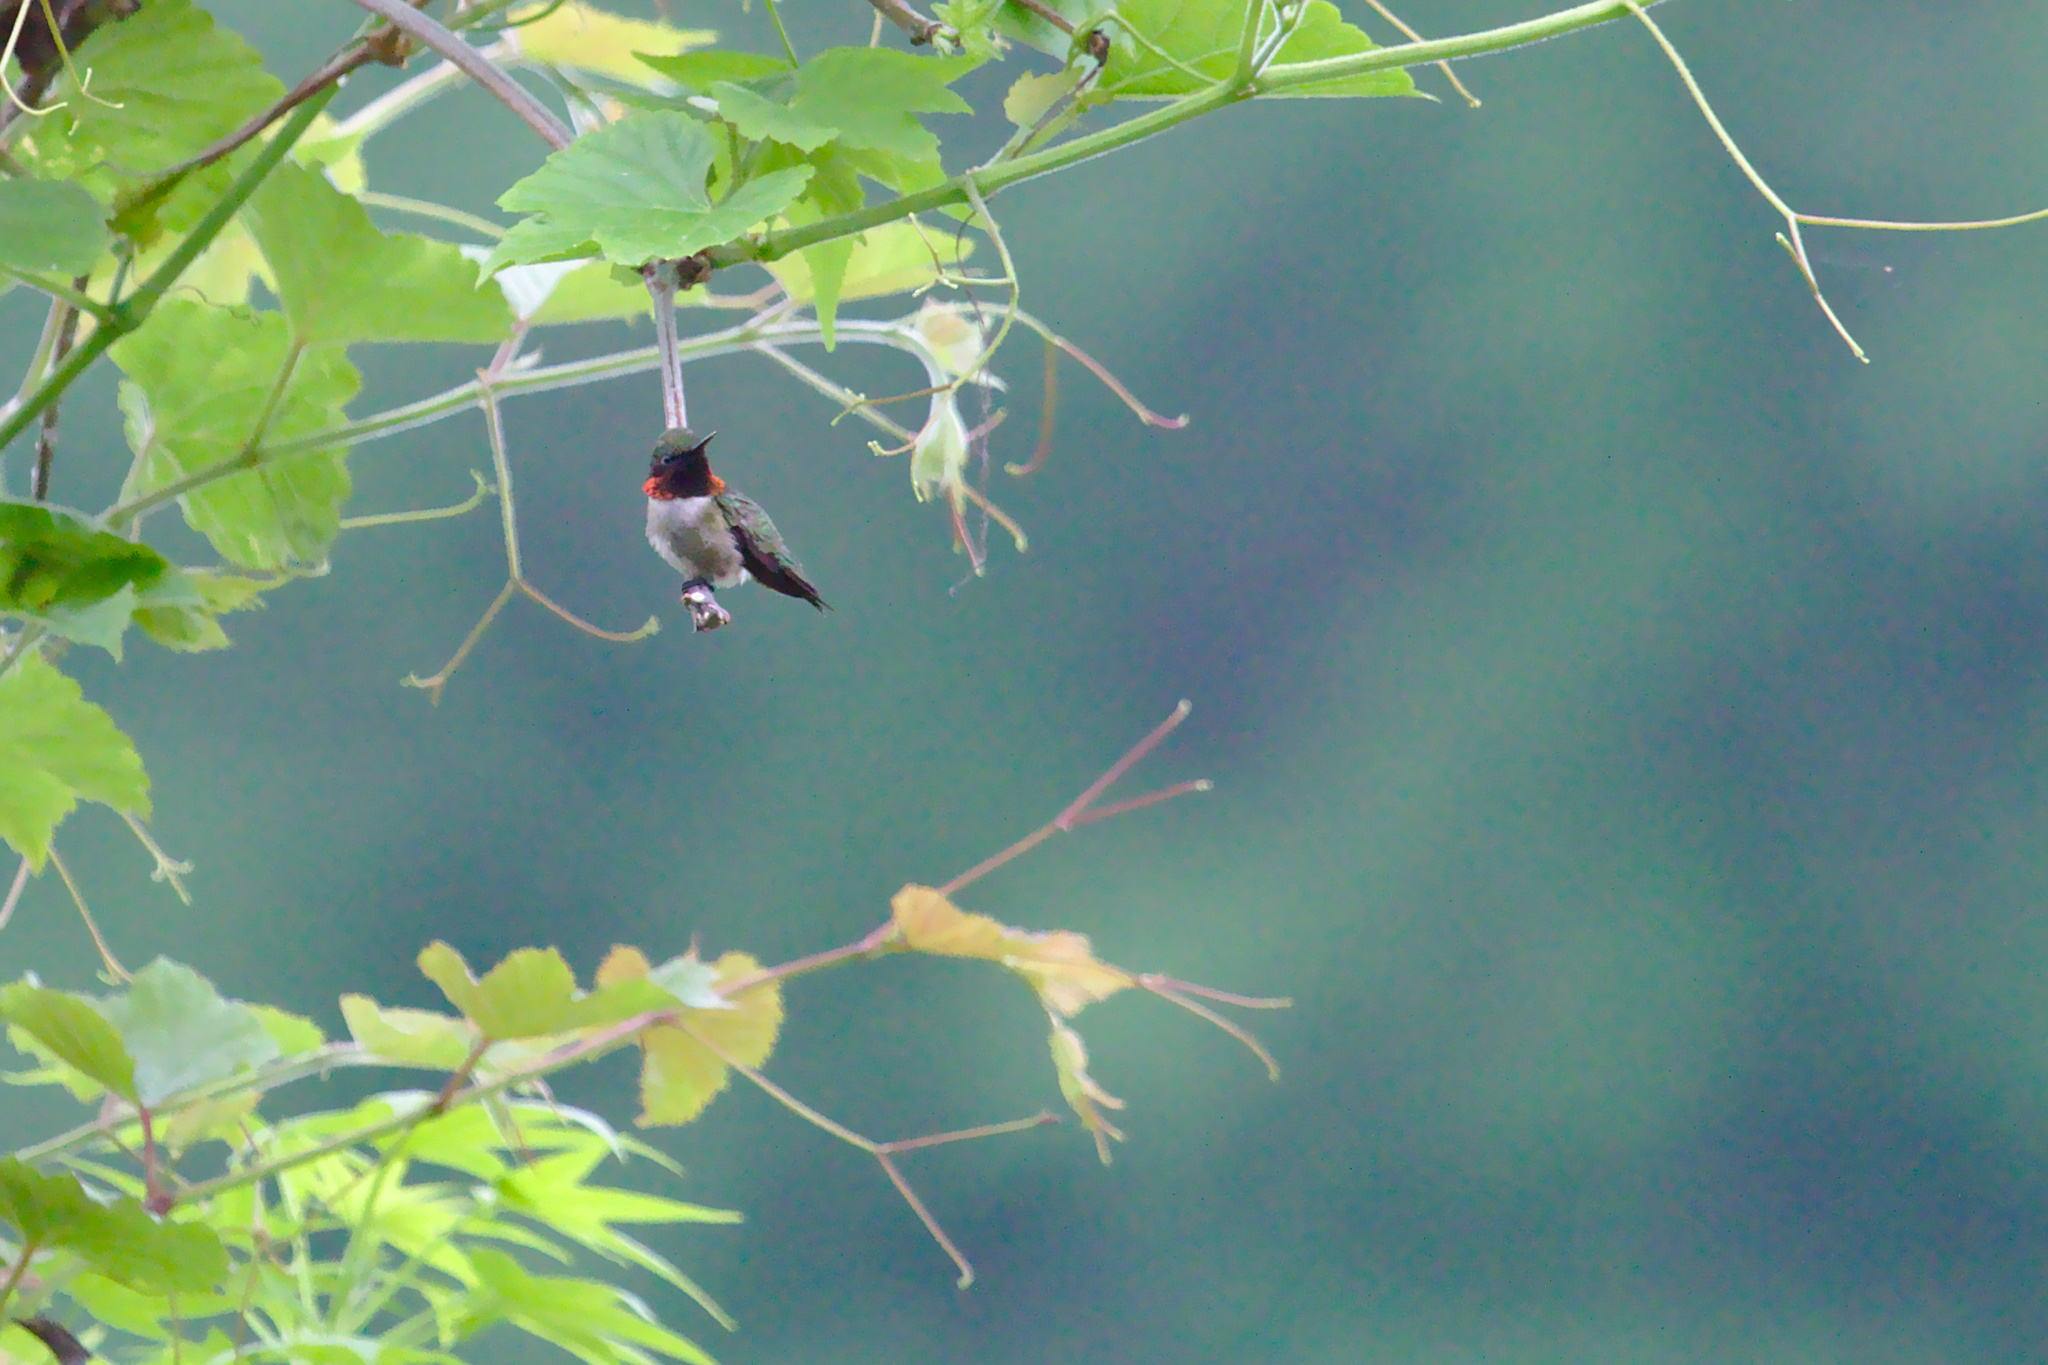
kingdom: Animalia
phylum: Chordata
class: Aves
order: Apodiformes
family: Trochilidae
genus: Archilochus
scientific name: Archilochus colubris
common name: Ruby-throated hummingbird
